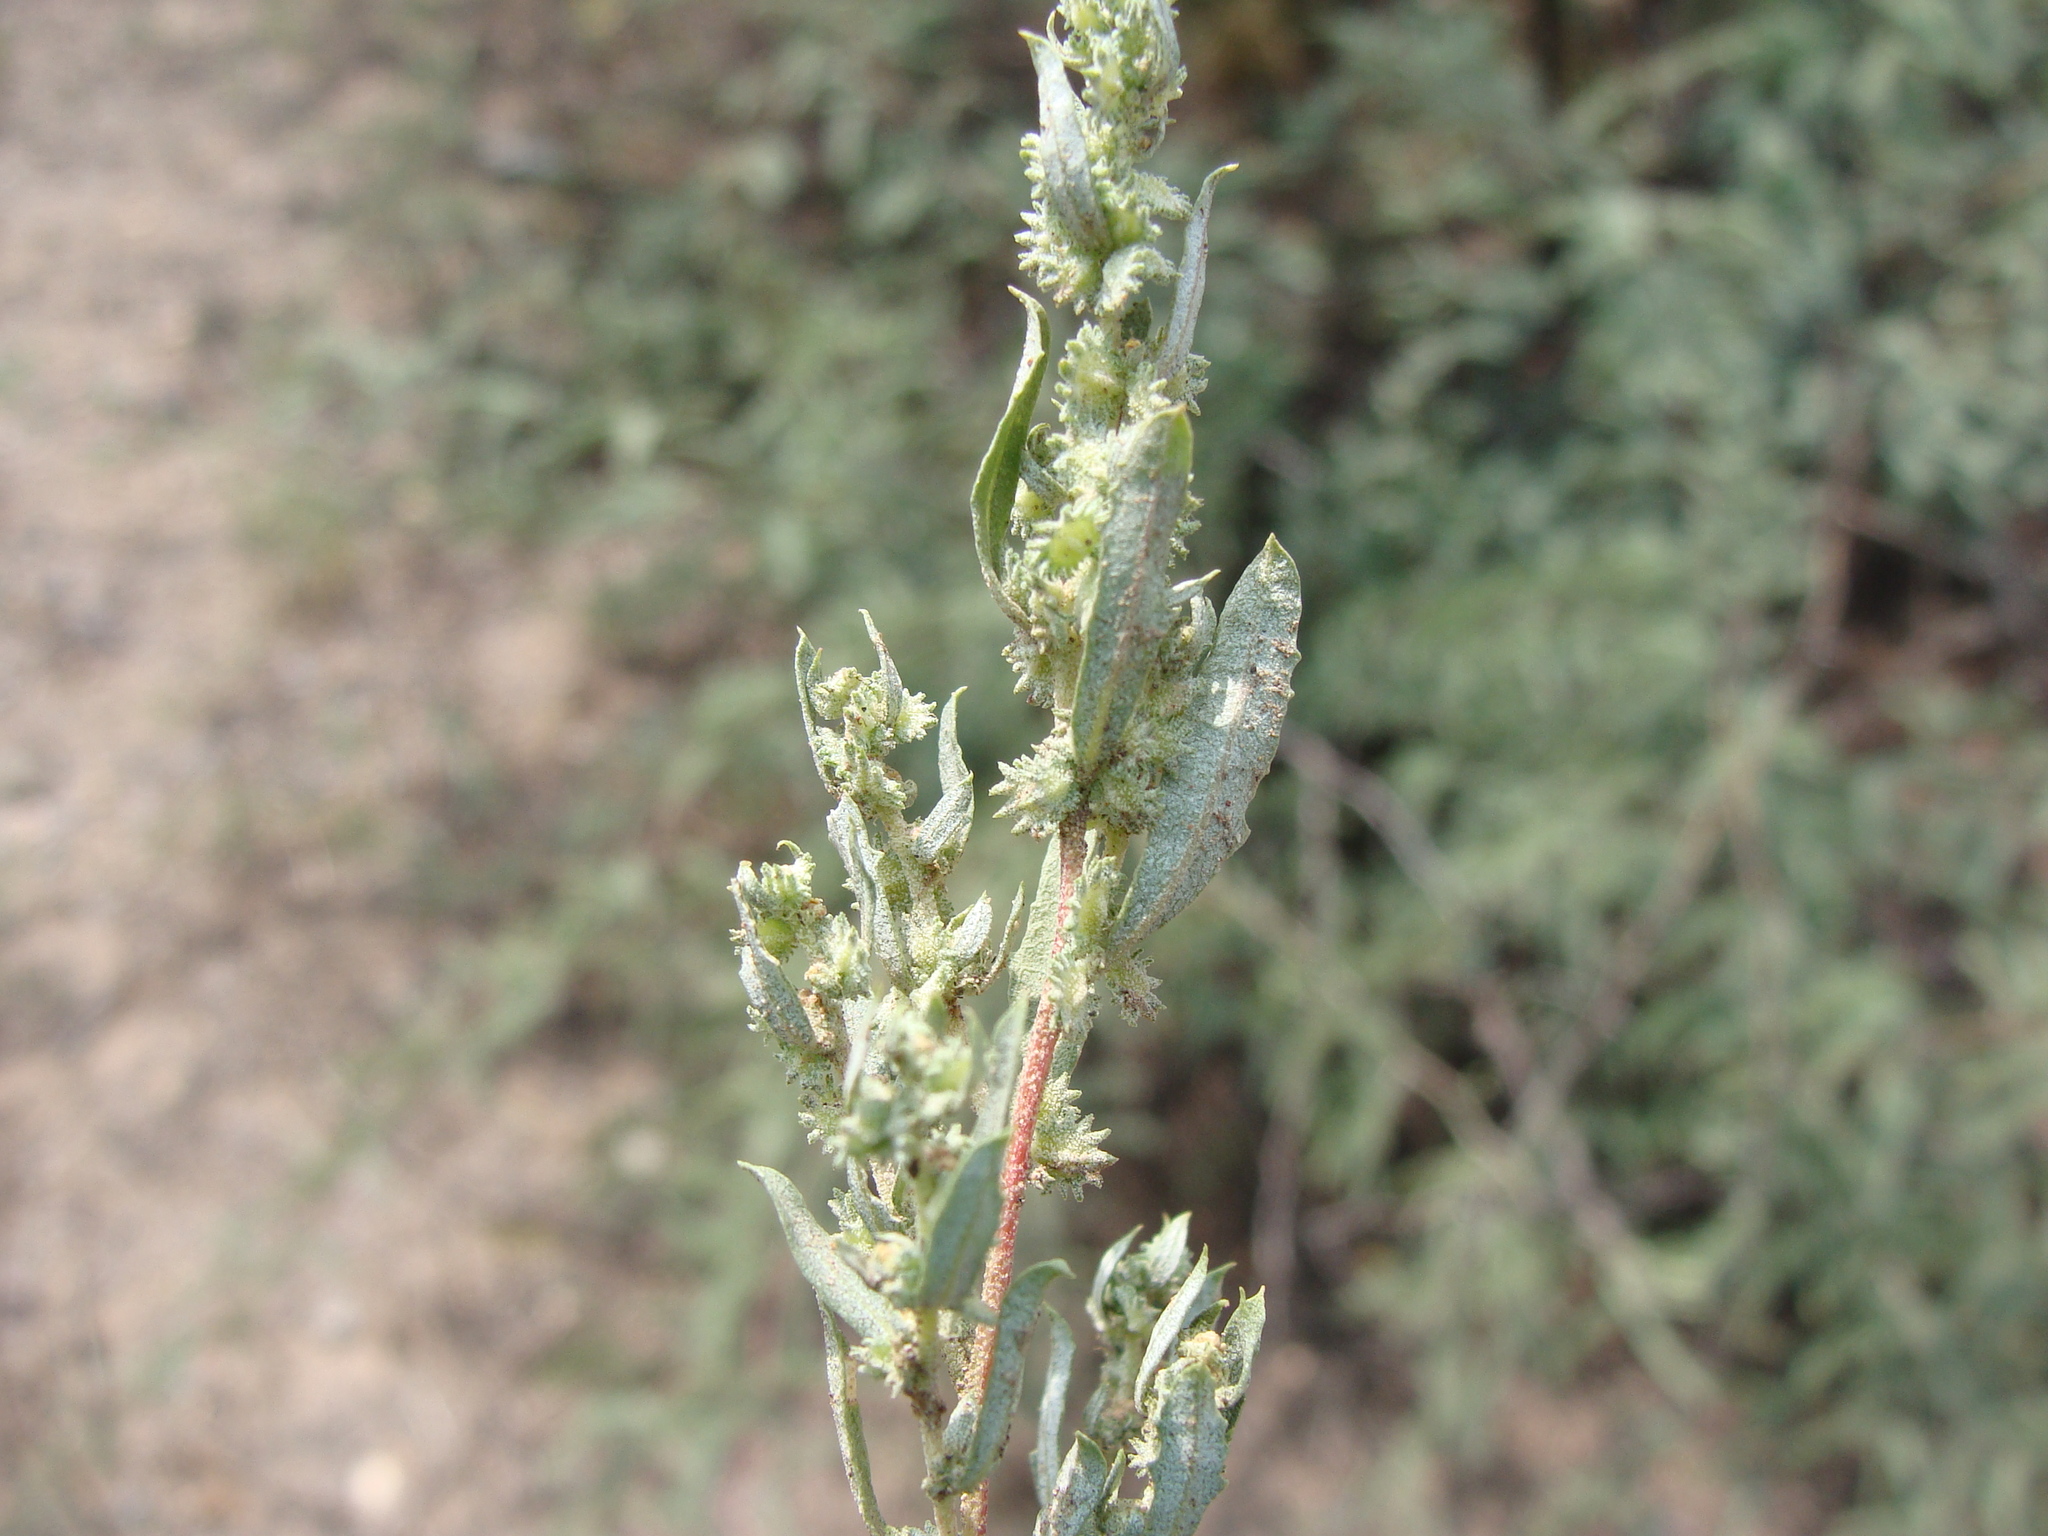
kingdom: Plantae
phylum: Tracheophyta
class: Magnoliopsida
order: Caryophyllales
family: Amaranthaceae
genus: Atriplex
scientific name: Atriplex elegans
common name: Wheelscale orach
